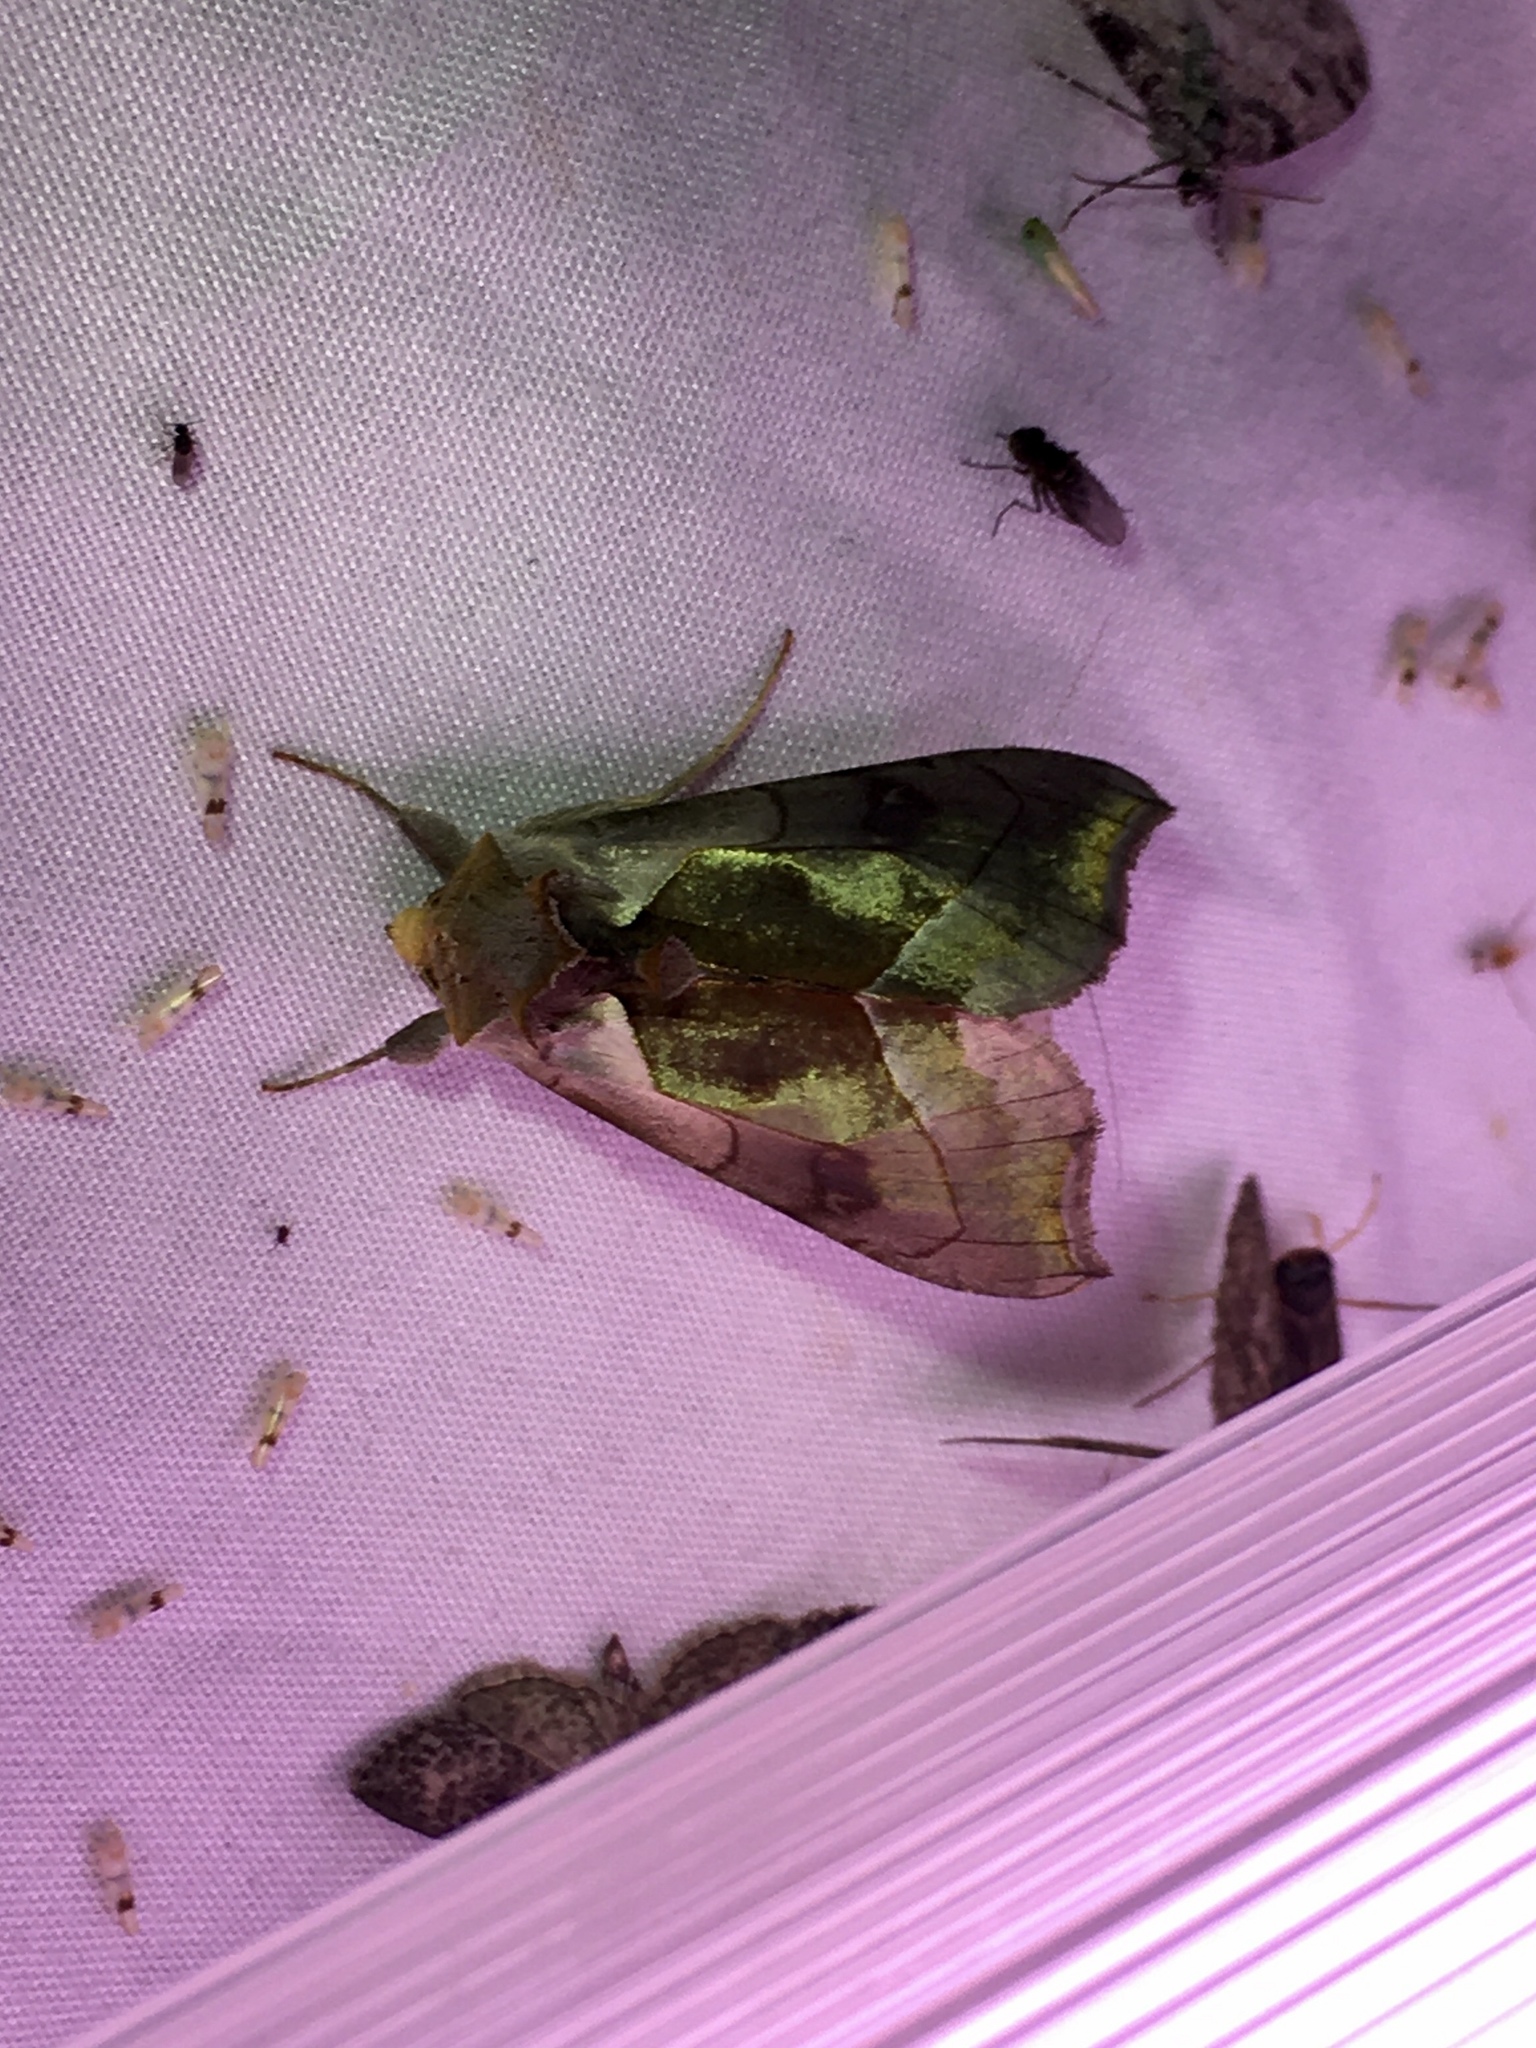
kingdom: Animalia
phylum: Arthropoda
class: Insecta
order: Lepidoptera
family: Noctuidae
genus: Diachrysia
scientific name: Diachrysia balluca
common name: Green-patched looper moth
